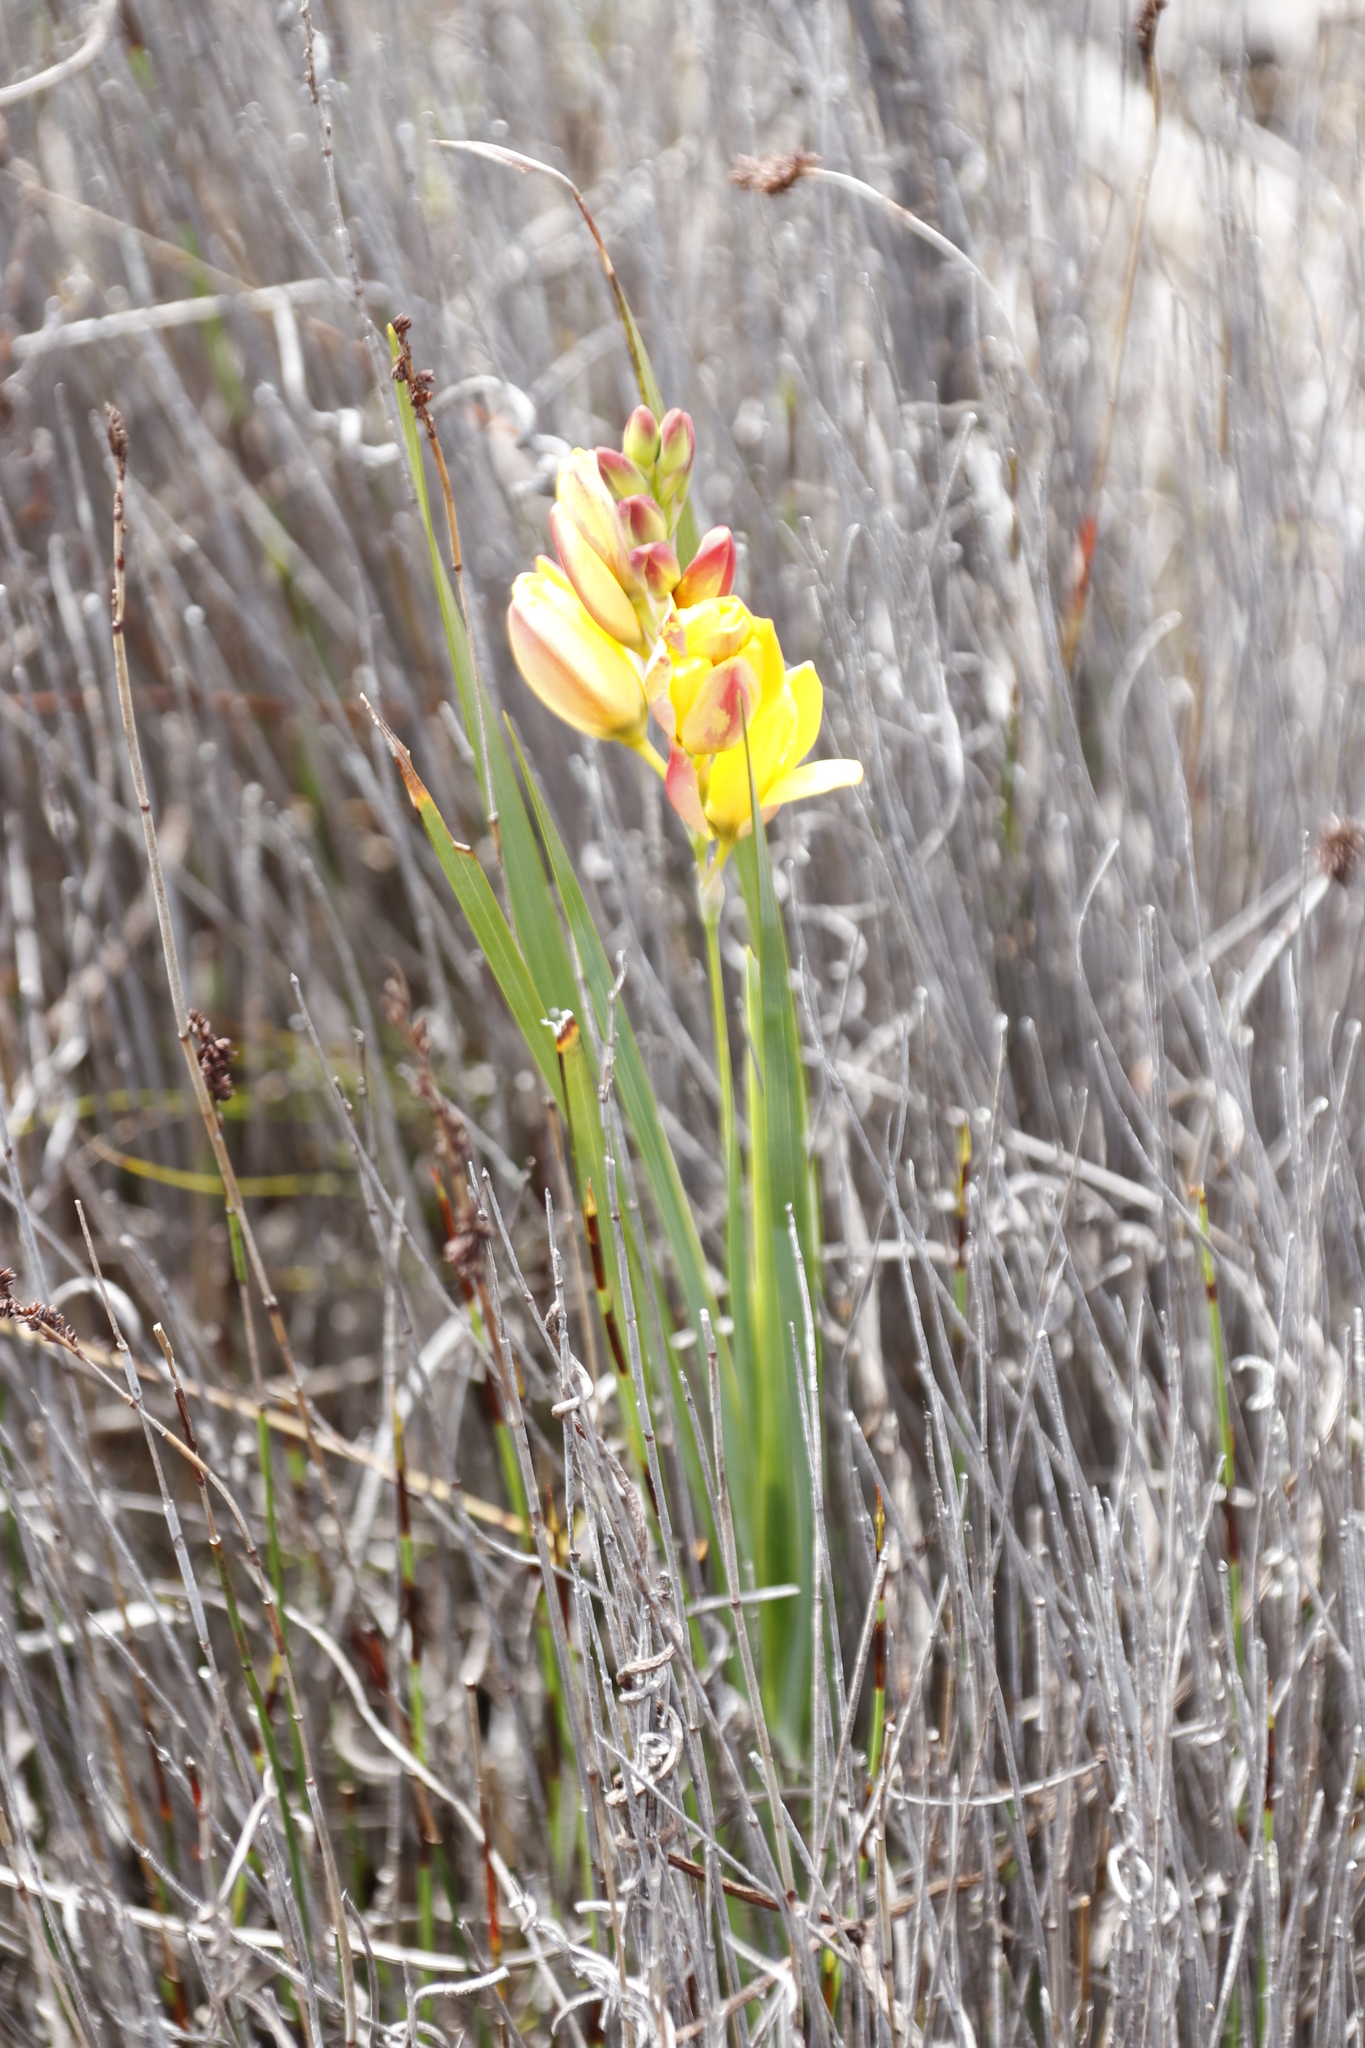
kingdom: Plantae
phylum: Tracheophyta
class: Liliopsida
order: Asparagales
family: Iridaceae
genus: Ixia
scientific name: Ixia dubia
